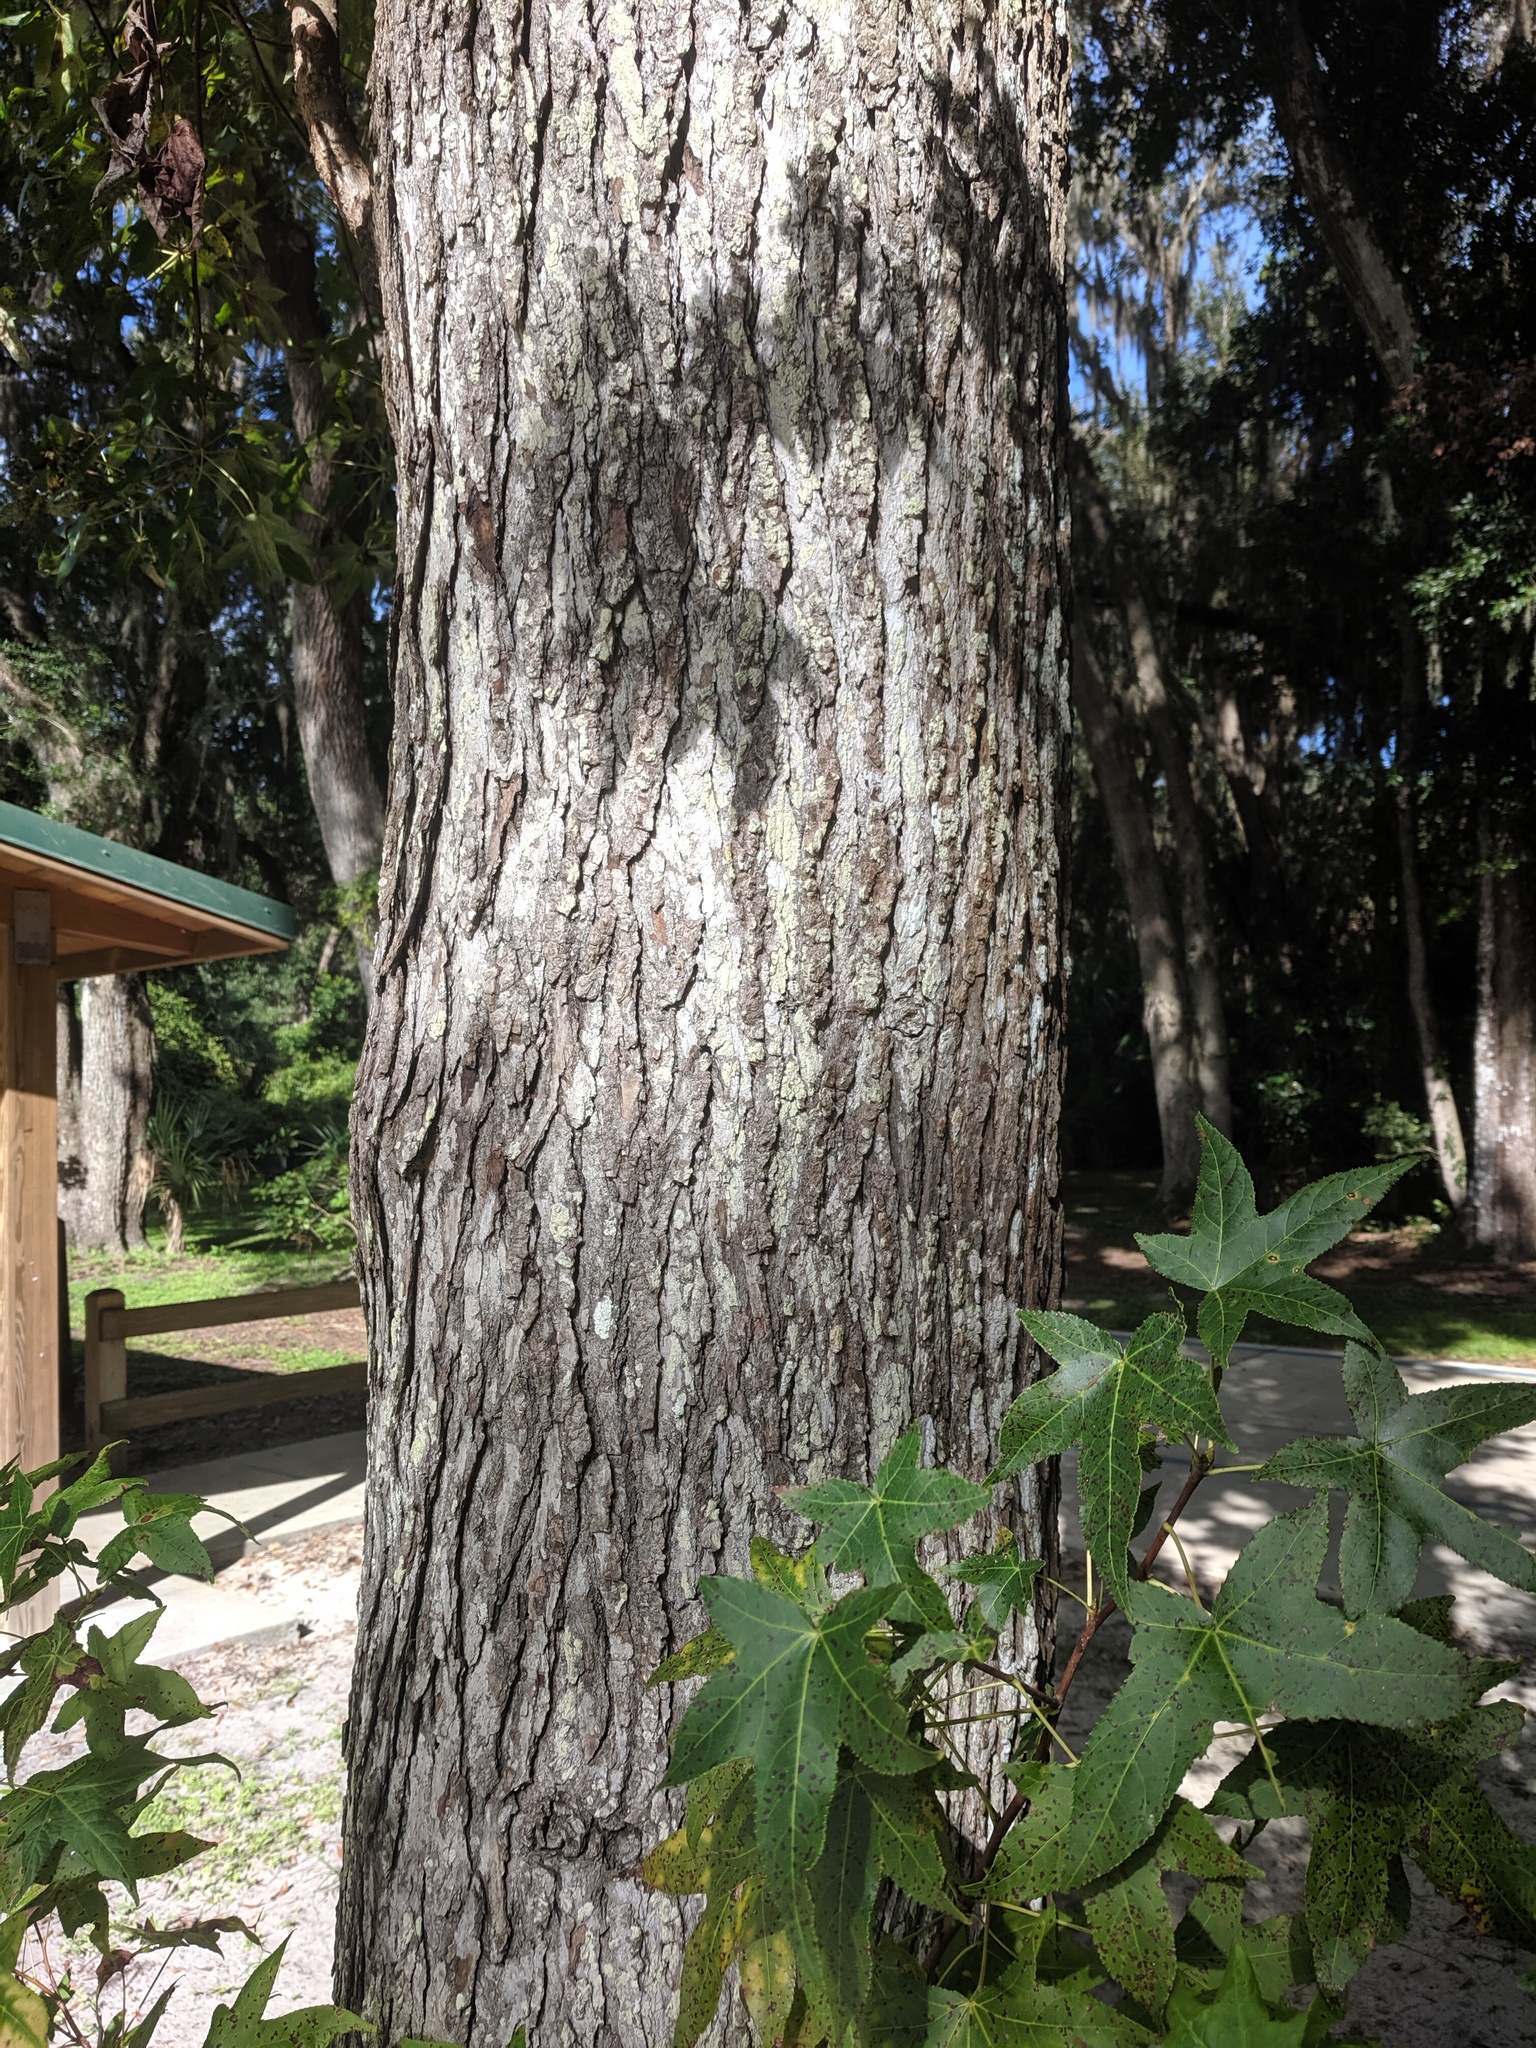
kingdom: Plantae
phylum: Tracheophyta
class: Magnoliopsida
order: Saxifragales
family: Altingiaceae
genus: Liquidambar
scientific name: Liquidambar styraciflua
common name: Sweet gum
